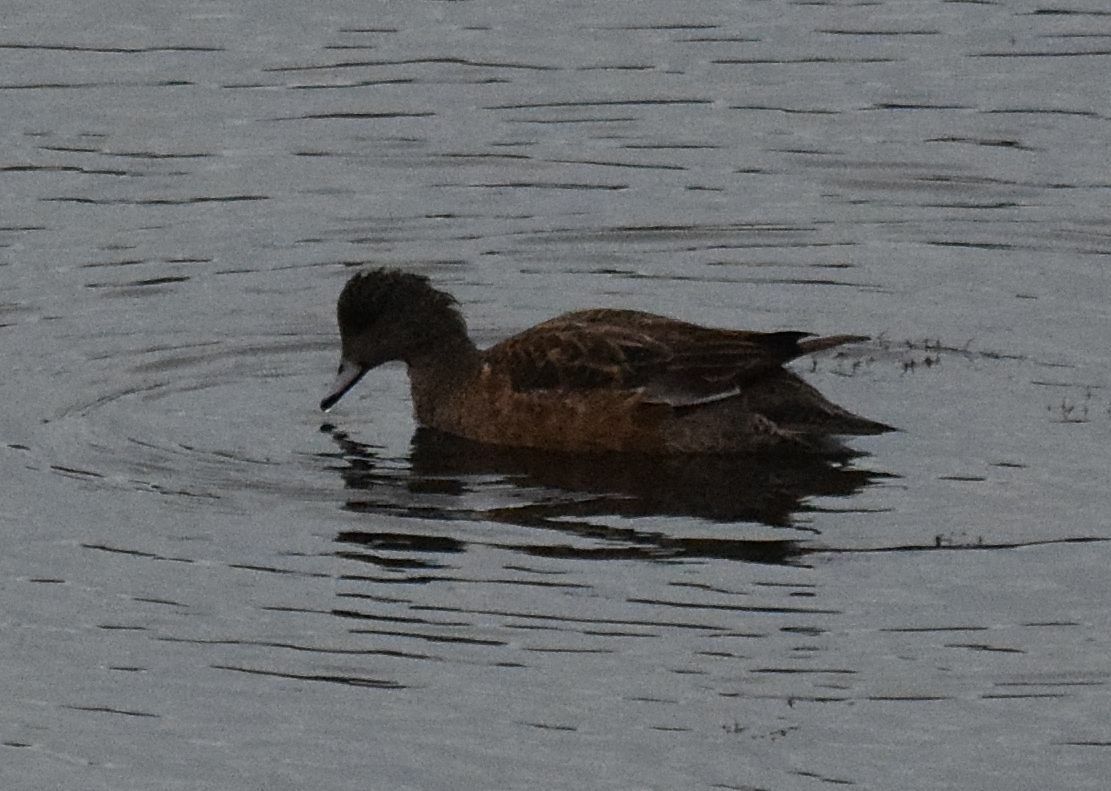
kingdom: Animalia
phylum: Chordata
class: Aves
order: Anseriformes
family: Anatidae
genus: Mareca
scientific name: Mareca americana
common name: American wigeon
